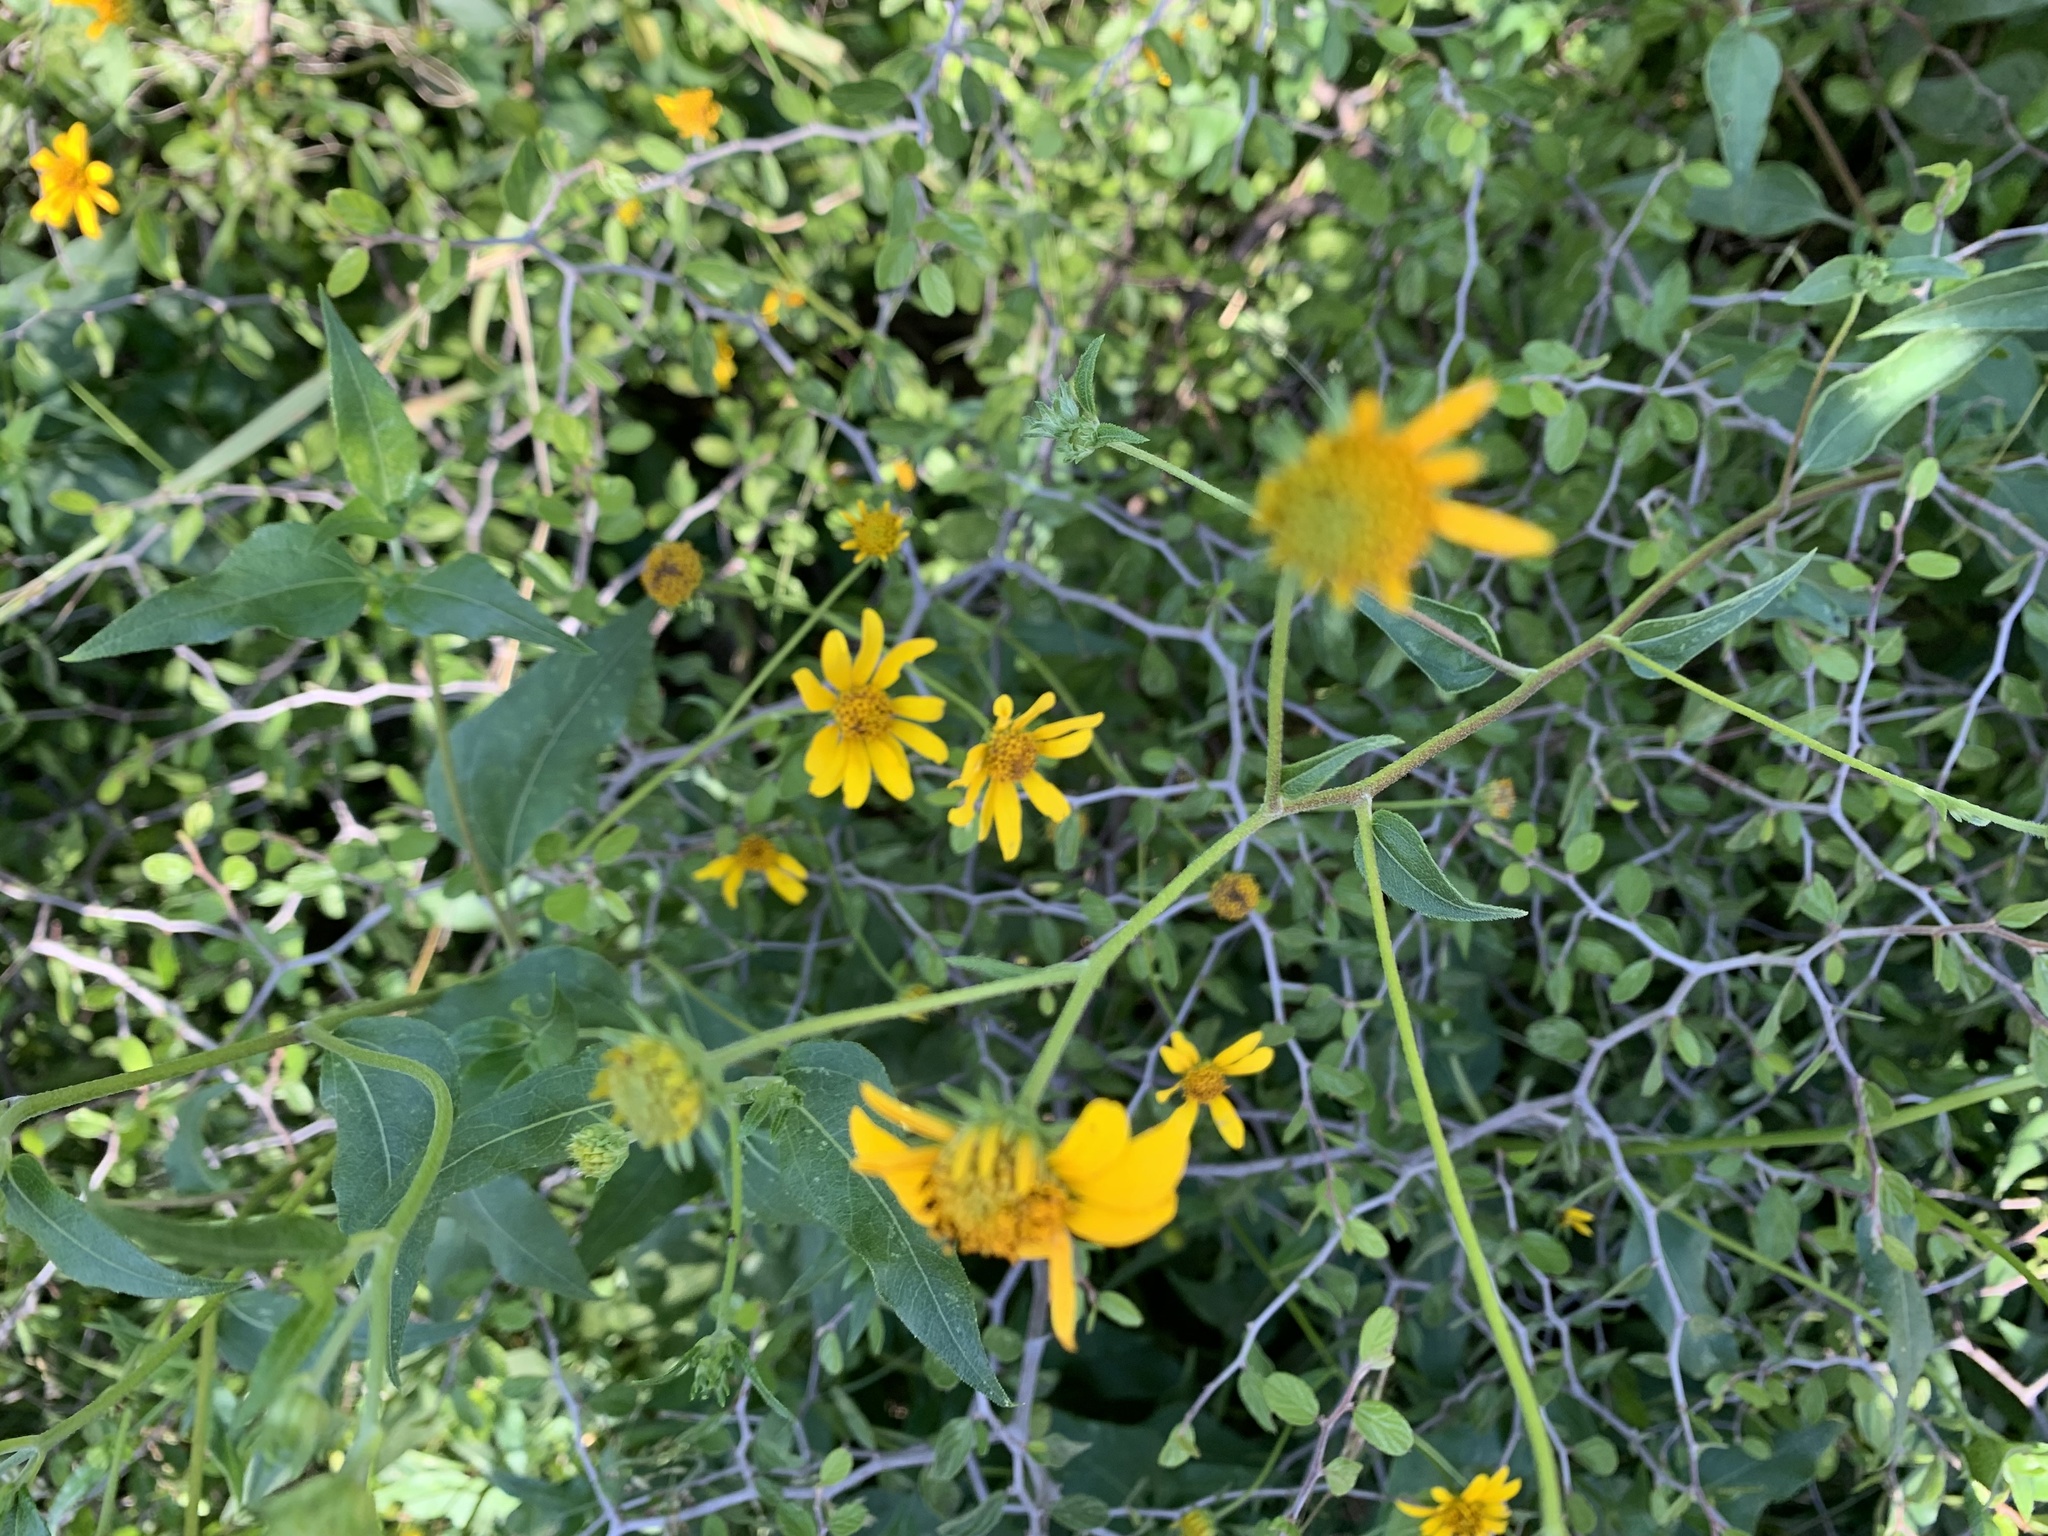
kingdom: Plantae
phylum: Tracheophyta
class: Magnoliopsida
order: Asterales
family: Asteraceae
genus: Viguiera
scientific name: Viguiera dentata
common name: Toothleaf
